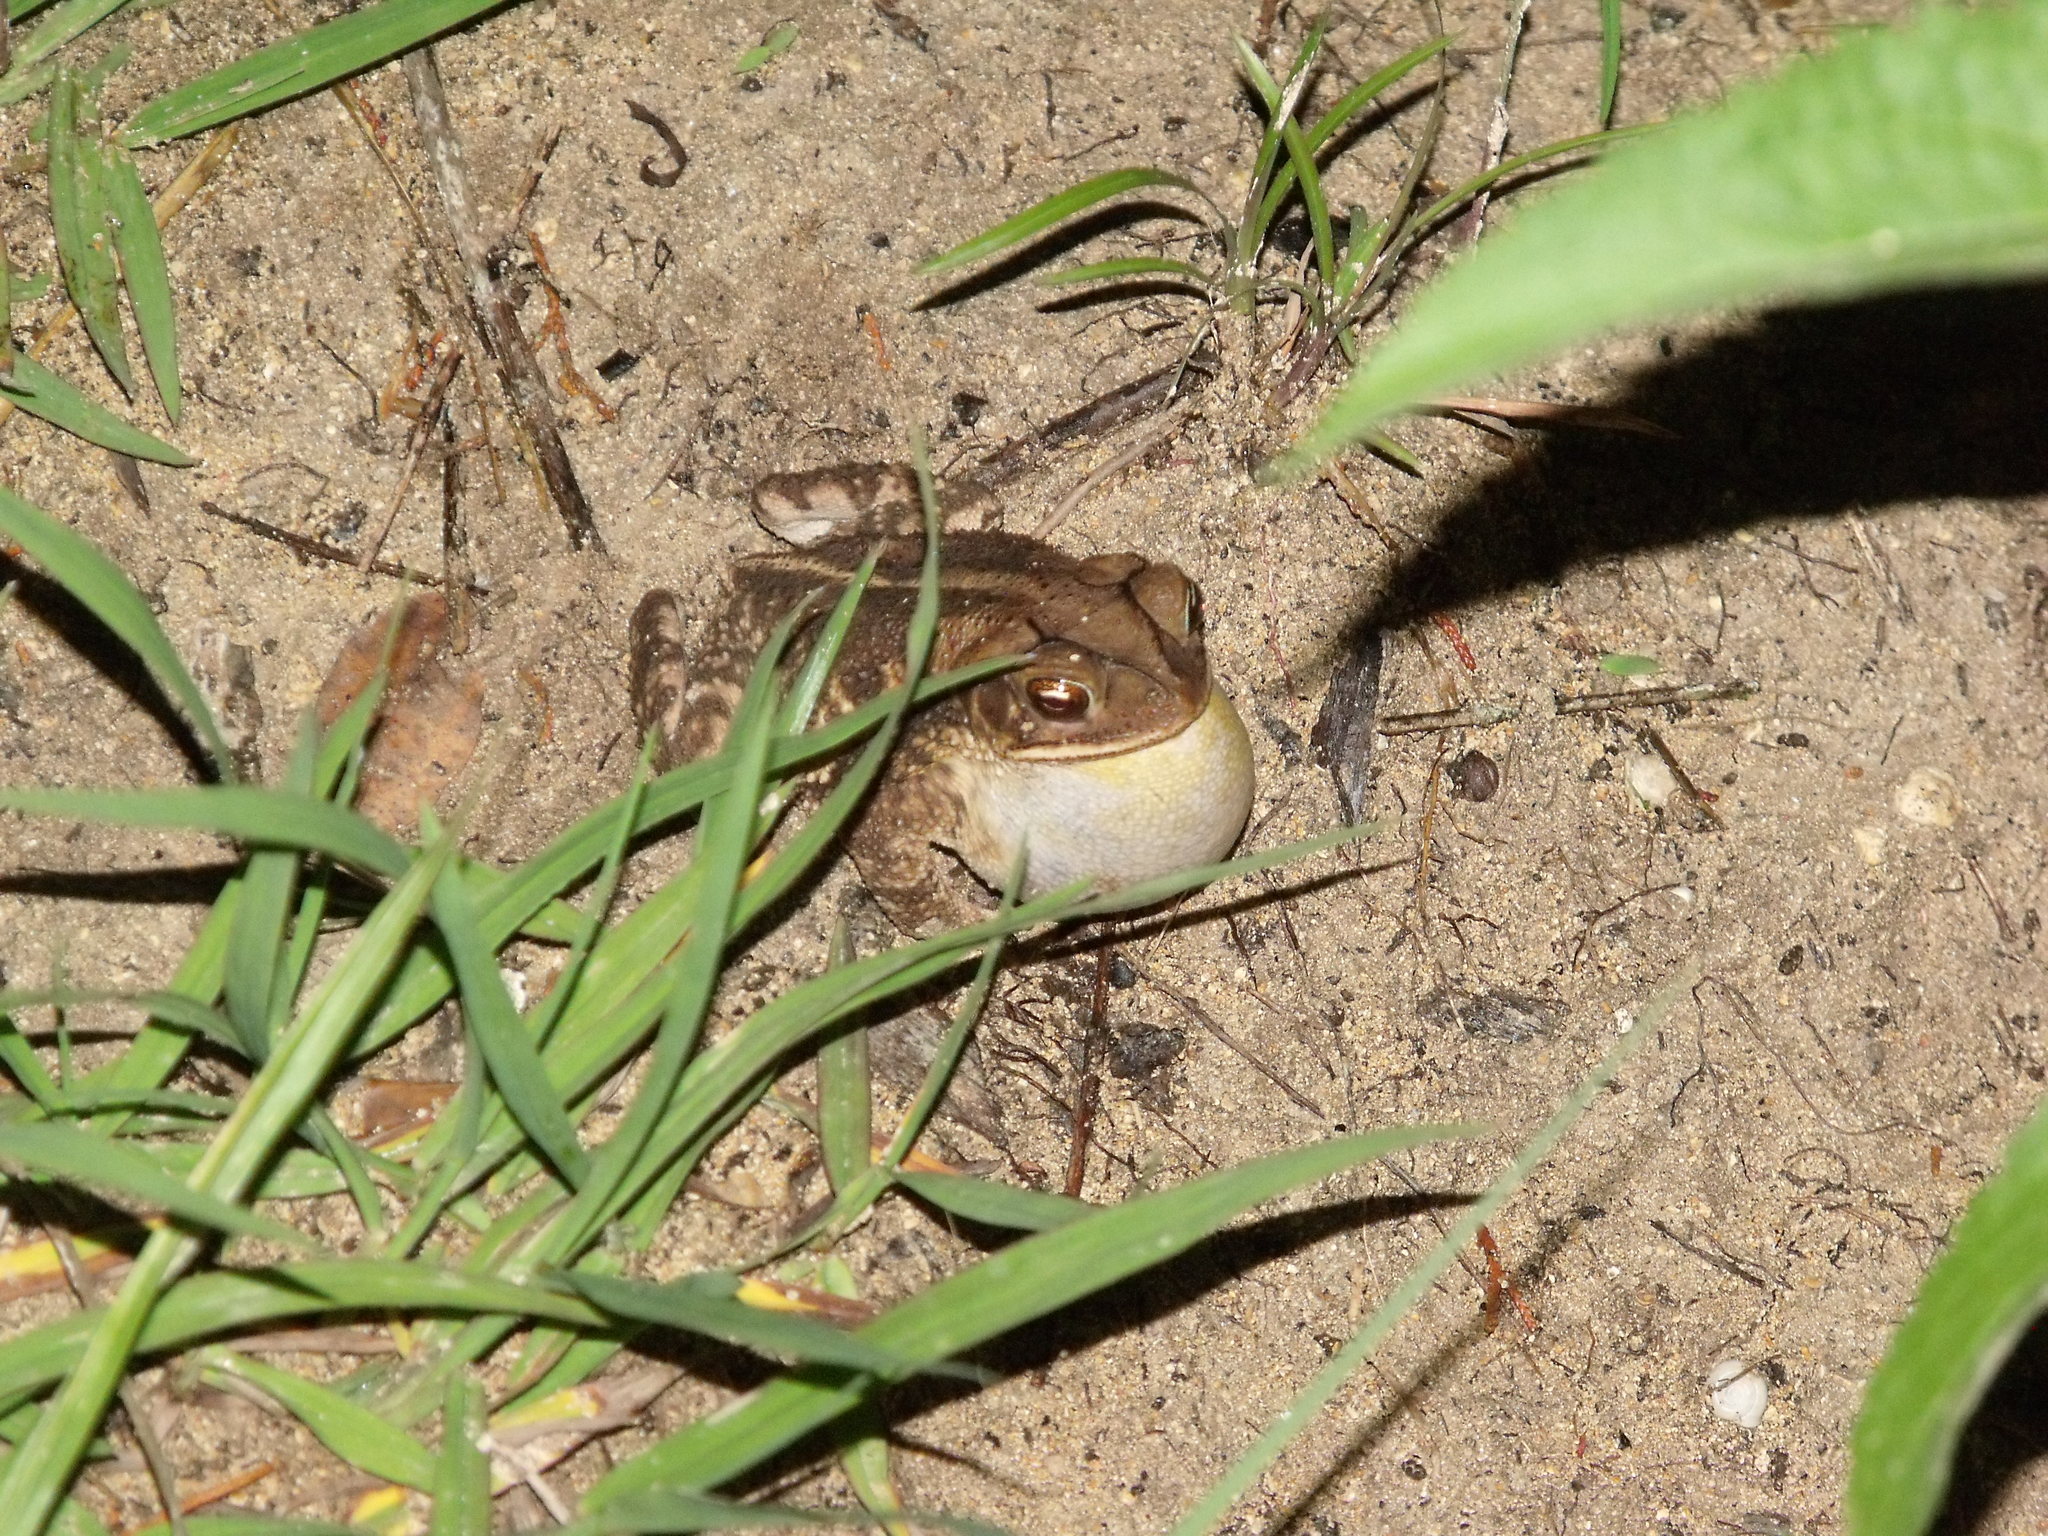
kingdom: Animalia
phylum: Chordata
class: Amphibia
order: Anura
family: Bufonidae
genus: Incilius
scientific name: Incilius nebulifer
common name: Gulf coast toad
